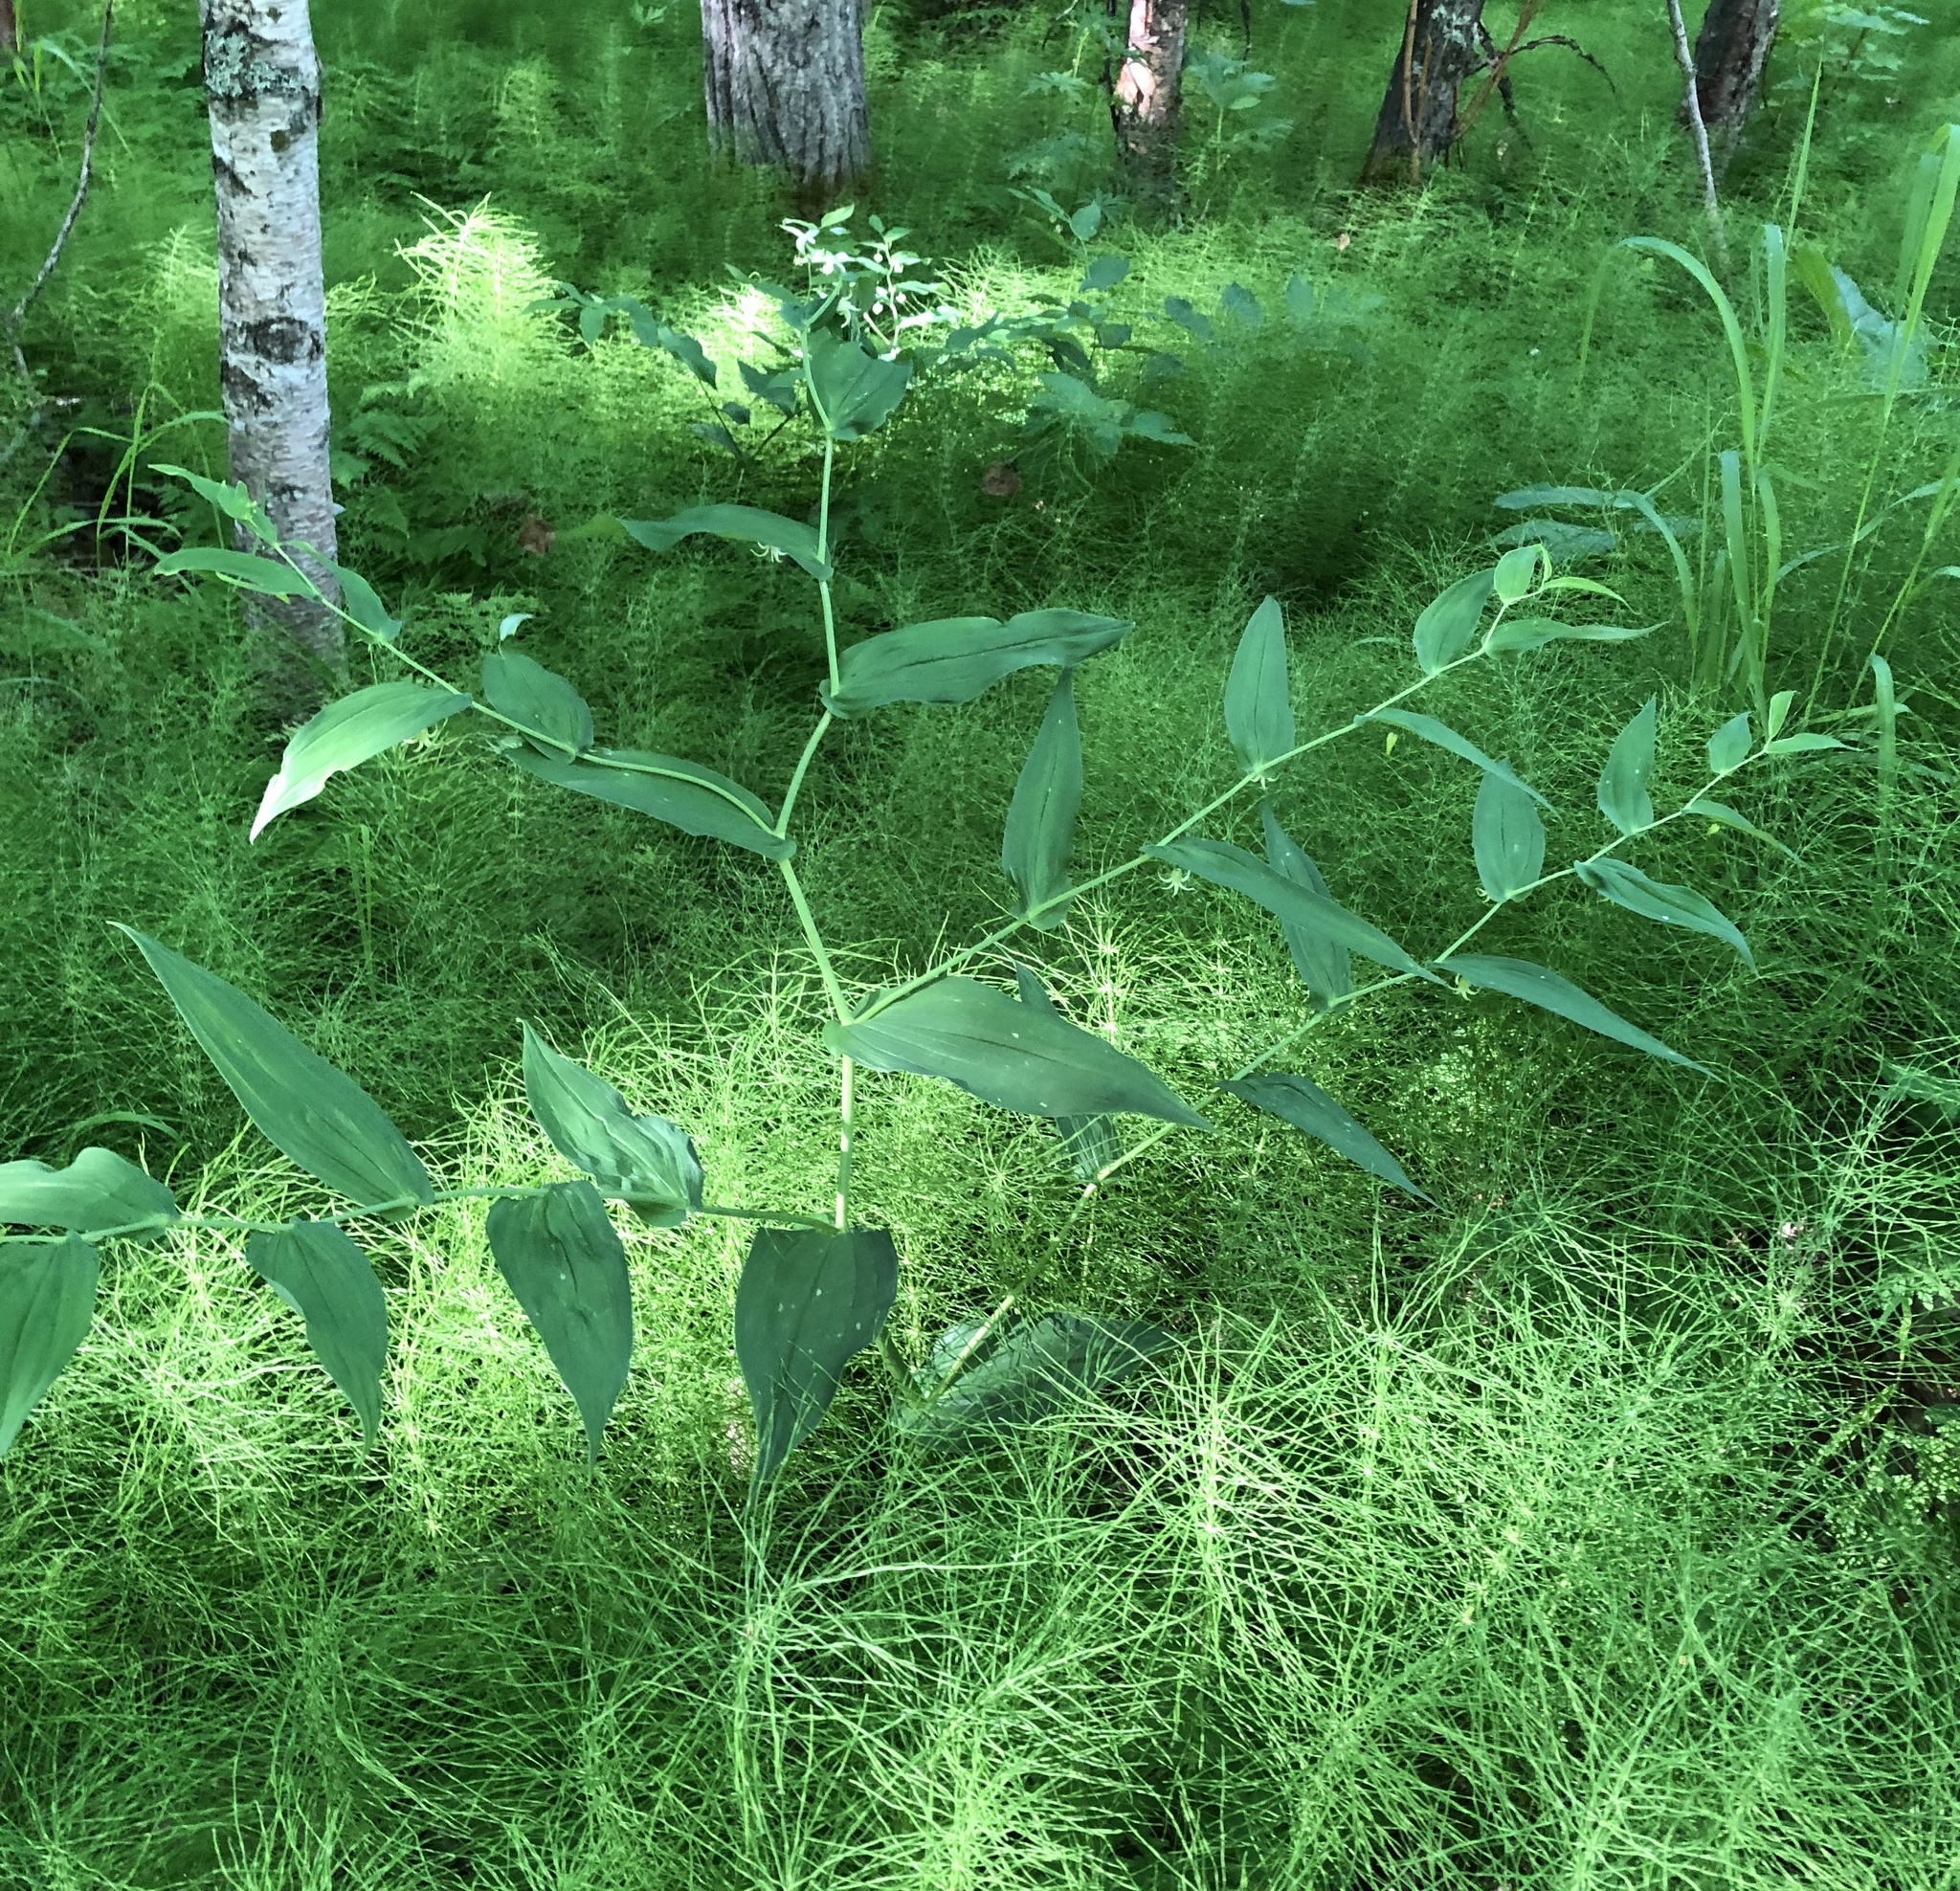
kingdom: Plantae
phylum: Tracheophyta
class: Liliopsida
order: Liliales
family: Liliaceae
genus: Streptopus
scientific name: Streptopus amplexifolius
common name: Clasp twisted stalk
